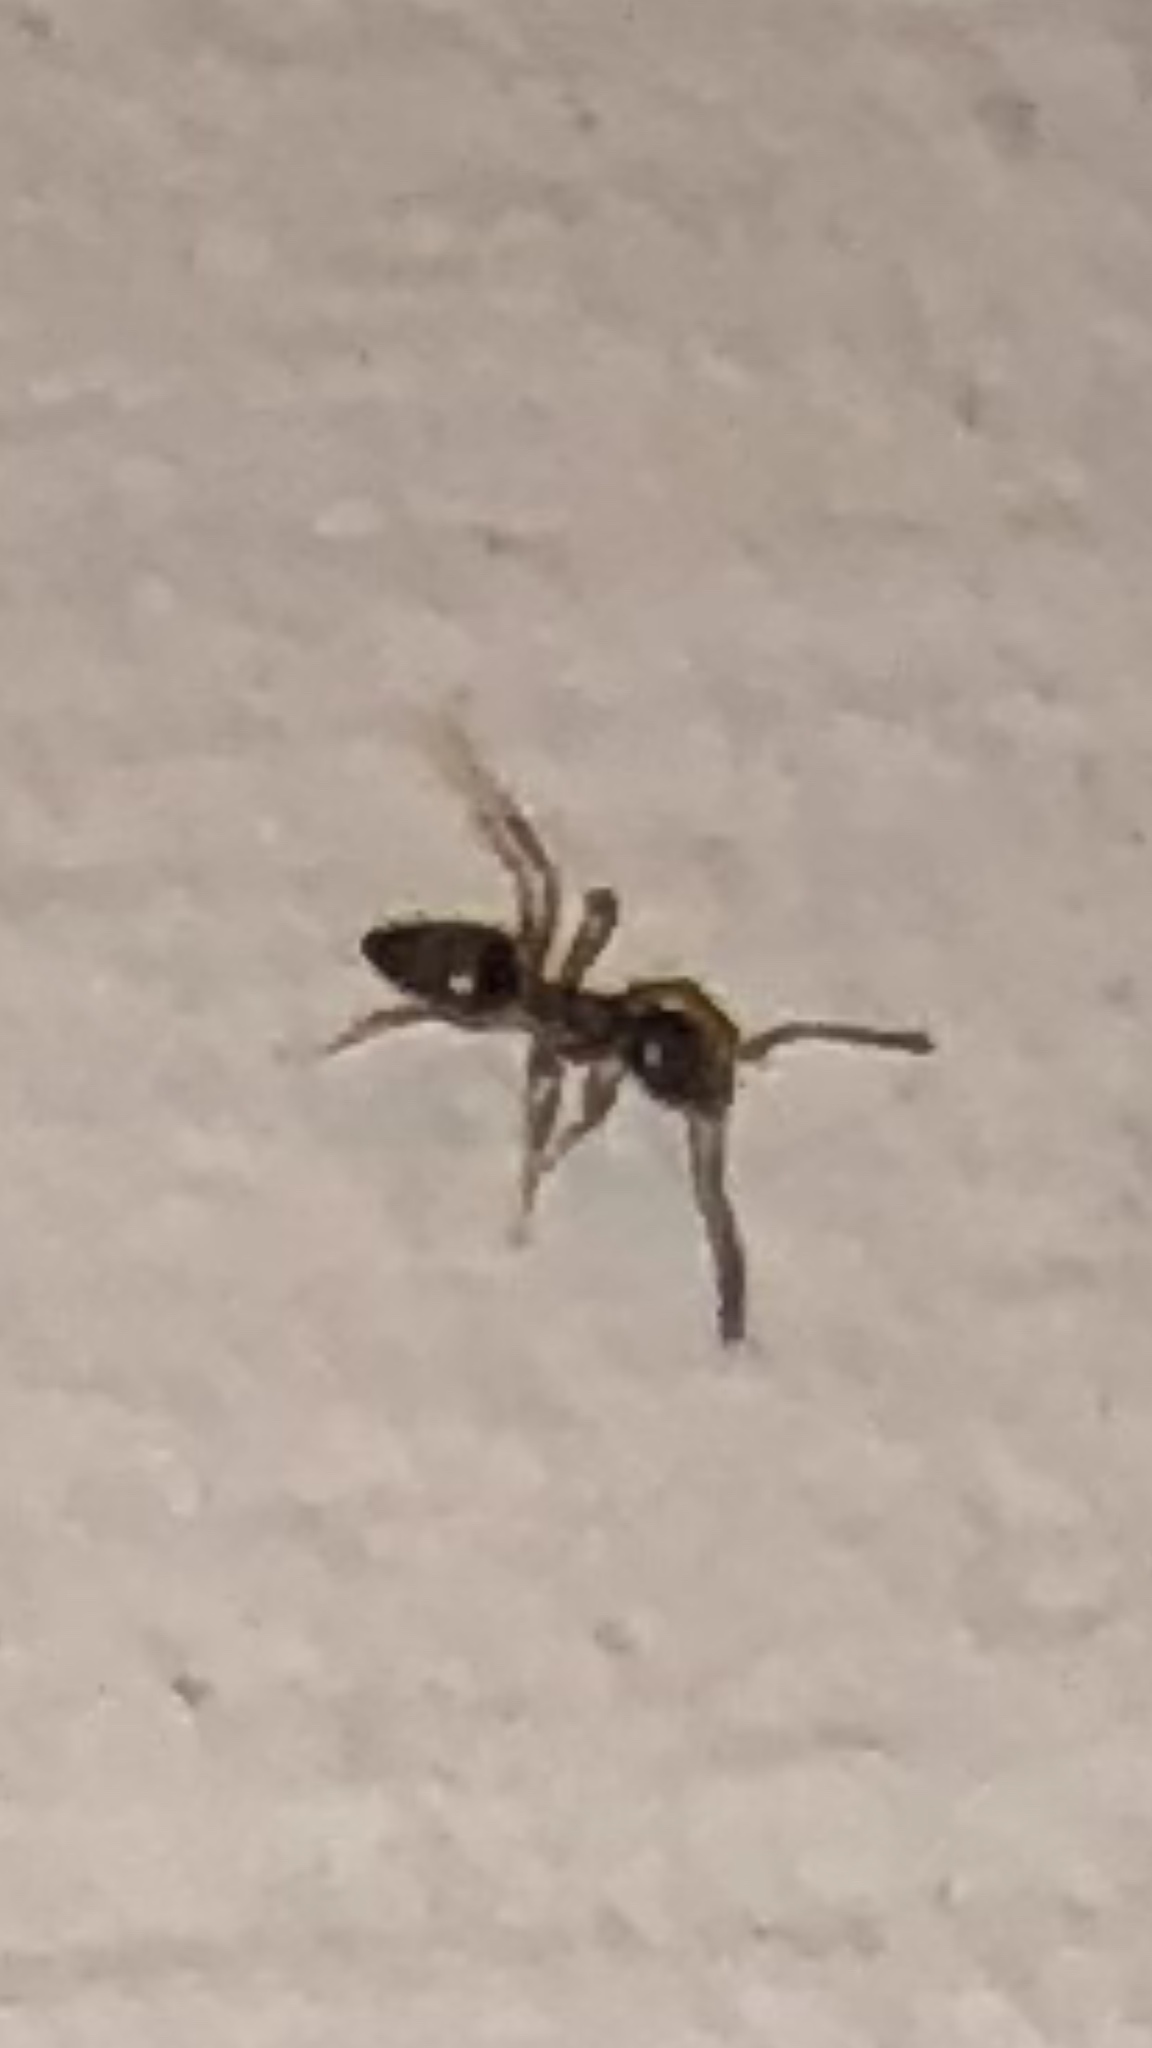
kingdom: Animalia
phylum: Arthropoda
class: Insecta
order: Hymenoptera
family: Formicidae
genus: Tapinoma
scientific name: Tapinoma sessile
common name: Odorous house ant
